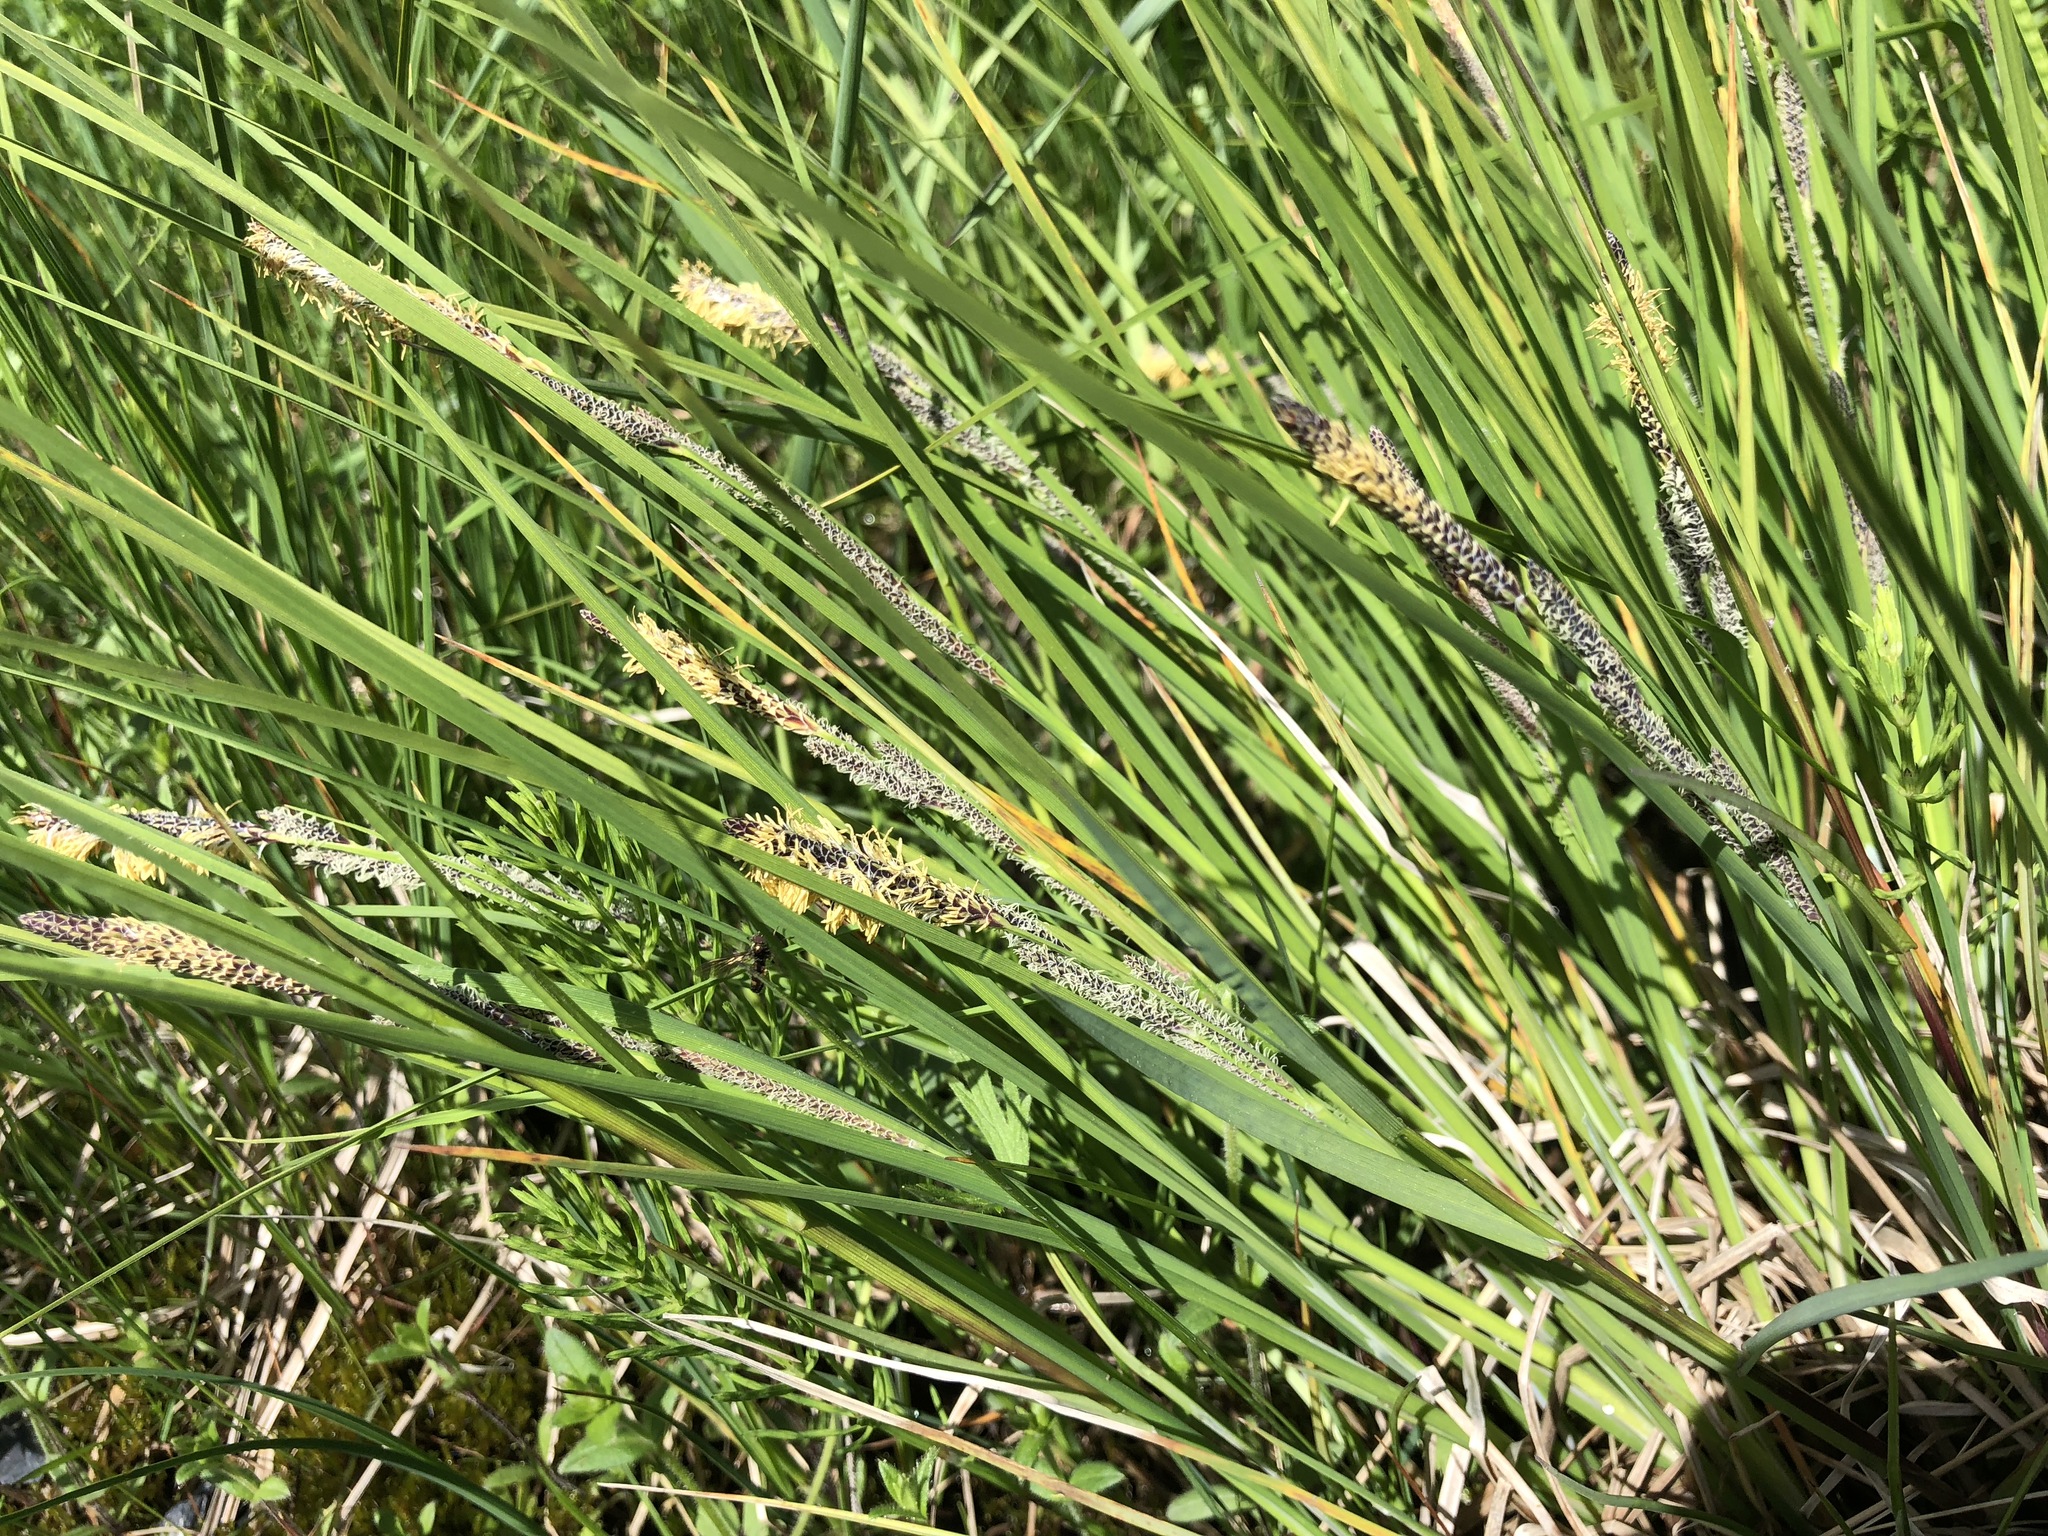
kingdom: Plantae
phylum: Tracheophyta
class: Liliopsida
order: Poales
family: Cyperaceae
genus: Carex
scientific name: Carex lenticularis
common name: Lakeshore sedge
